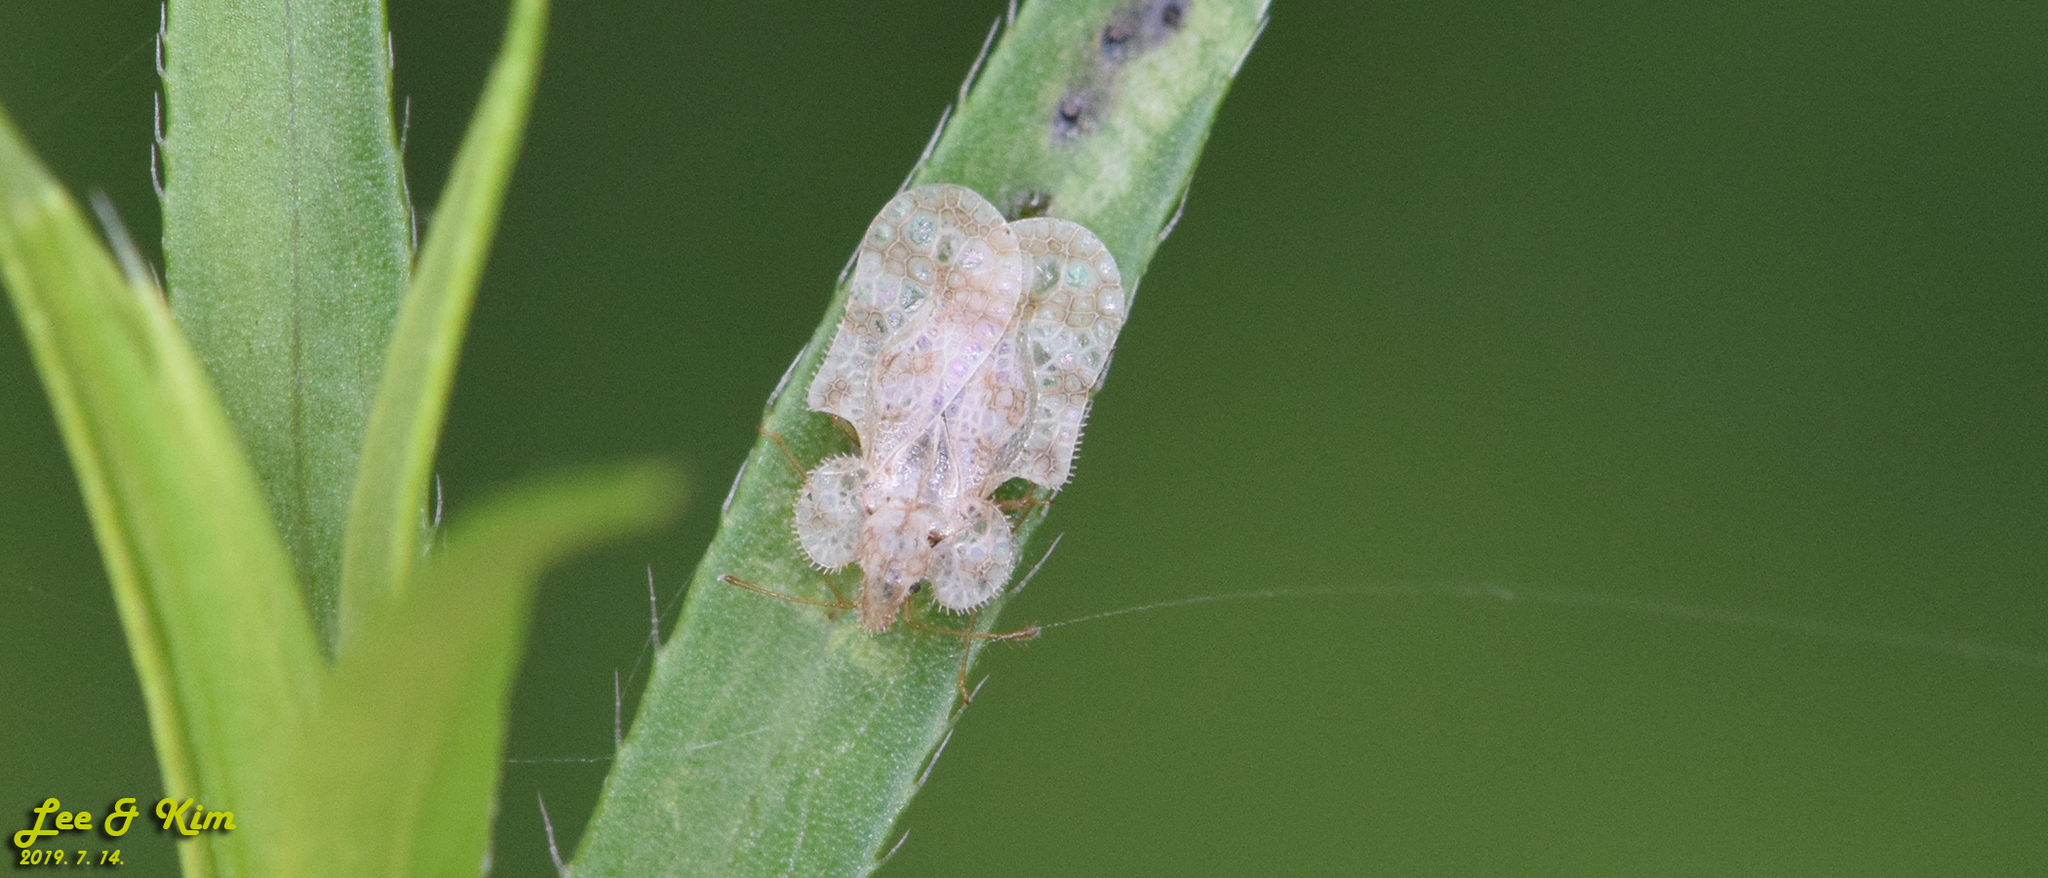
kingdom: Animalia
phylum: Arthropoda
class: Insecta
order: Hemiptera
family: Tingidae
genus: Corythucha
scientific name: Corythucha marmorata
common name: Chrysanthemum lace bug
